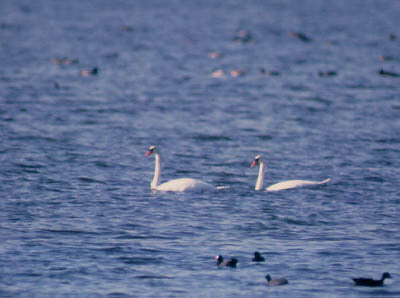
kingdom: Animalia
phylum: Chordata
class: Aves
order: Anseriformes
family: Anatidae
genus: Cygnus
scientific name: Cygnus olor
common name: Mute swan
